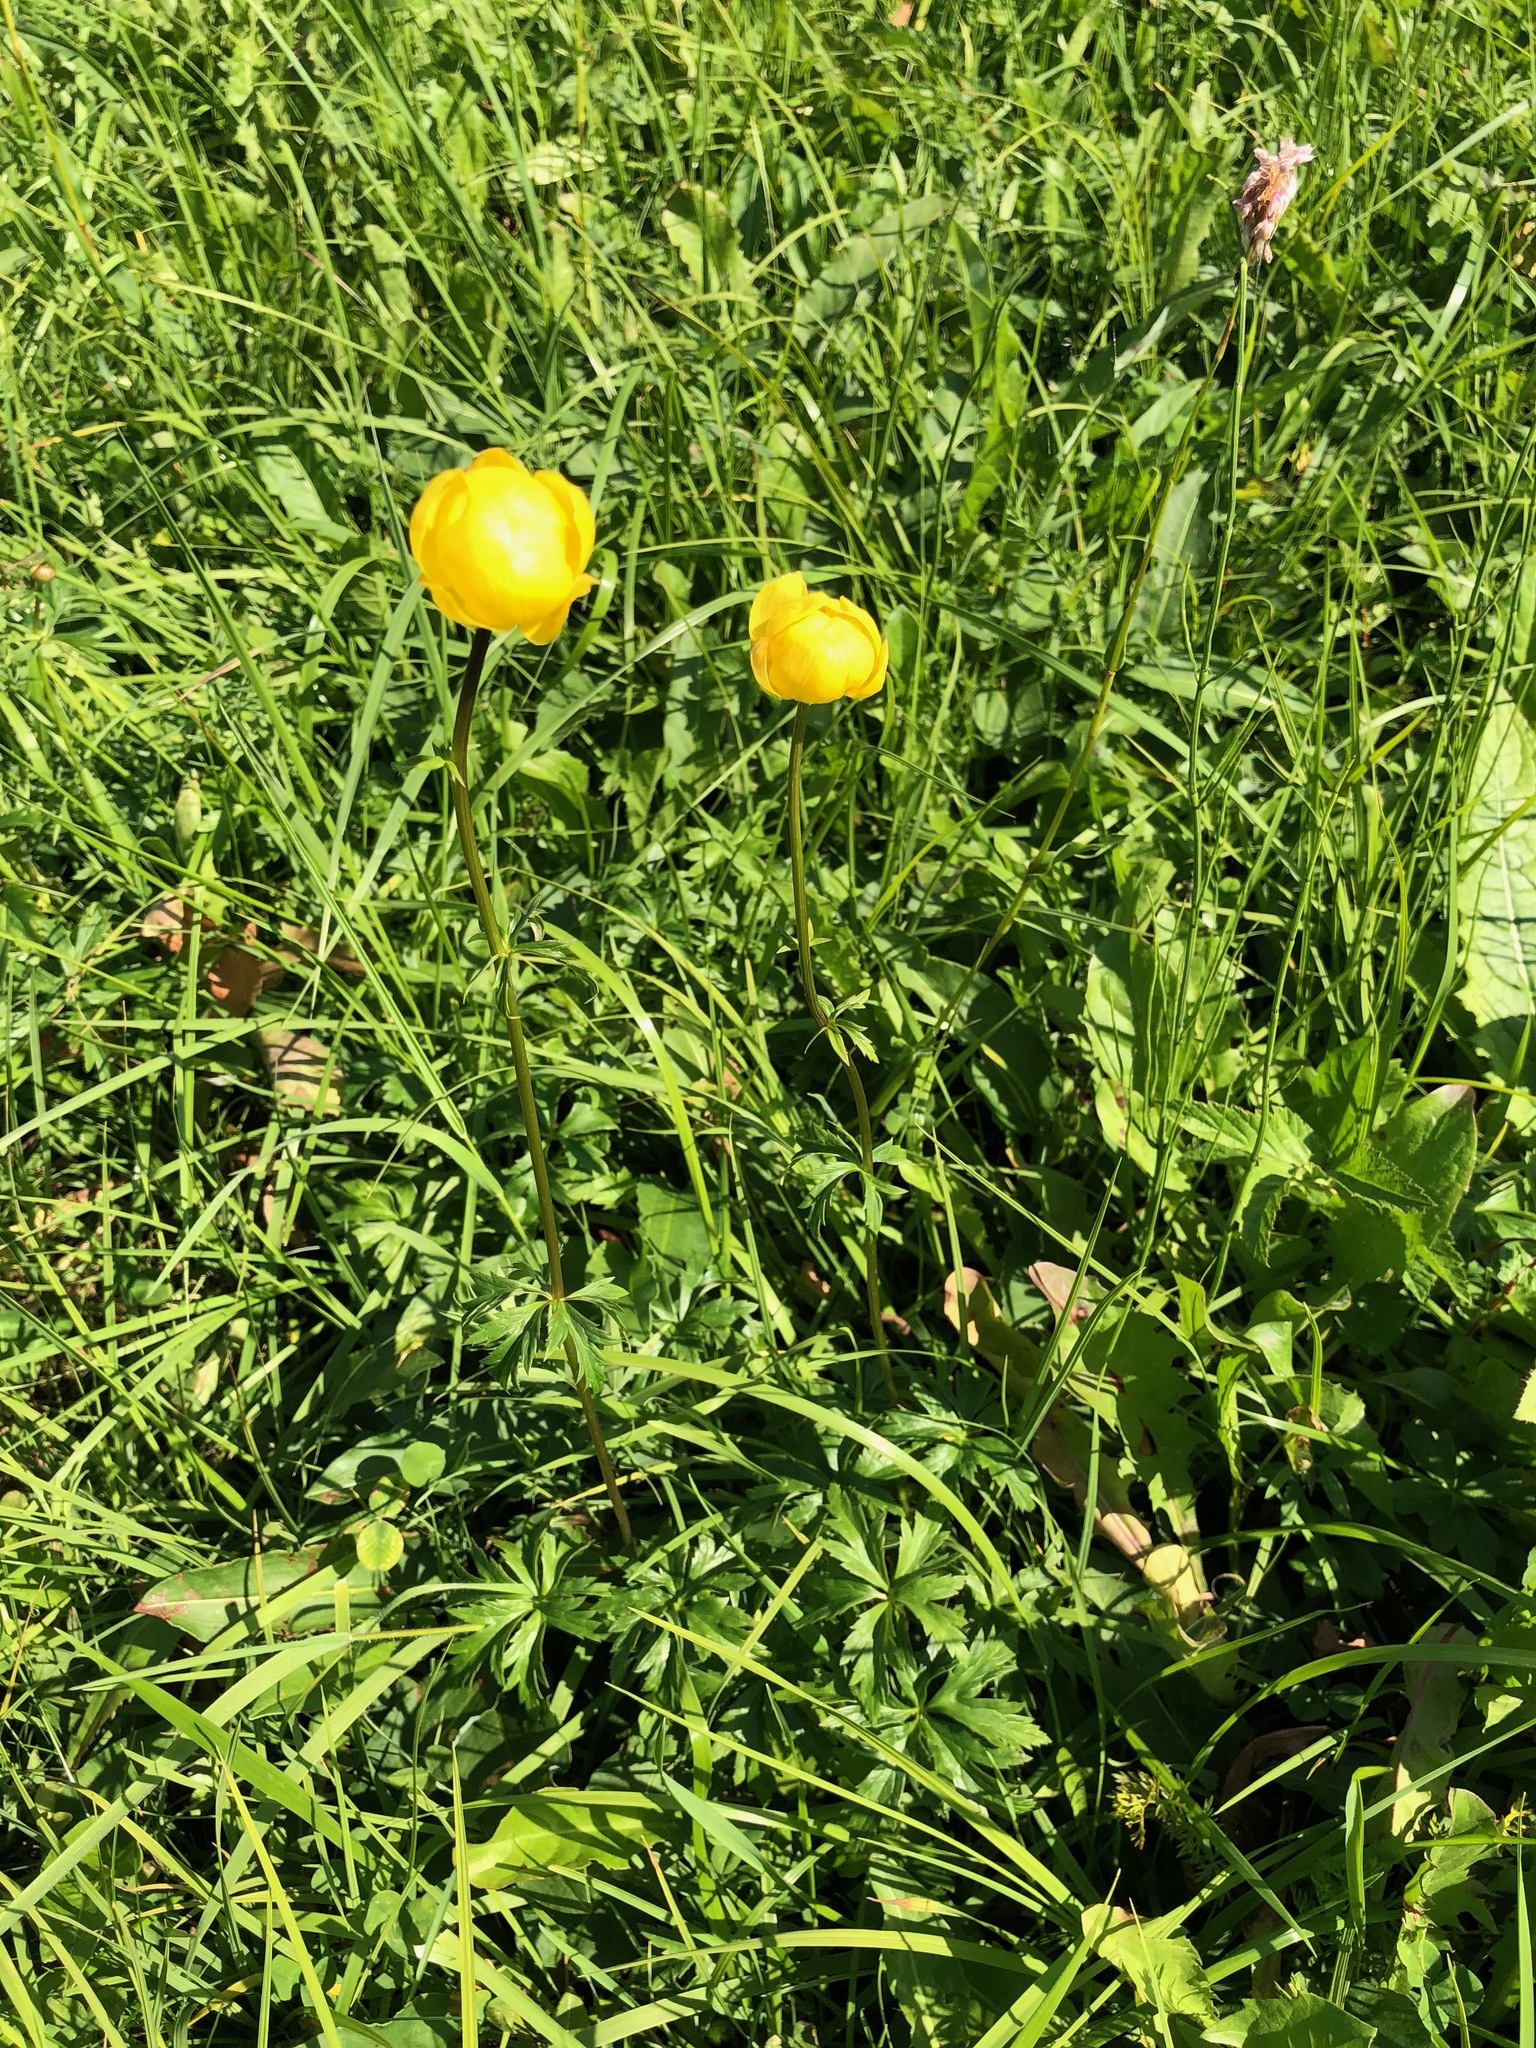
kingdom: Plantae
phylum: Tracheophyta
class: Magnoliopsida
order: Ranunculales
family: Ranunculaceae
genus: Trollius
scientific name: Trollius europaeus
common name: European globeflower
